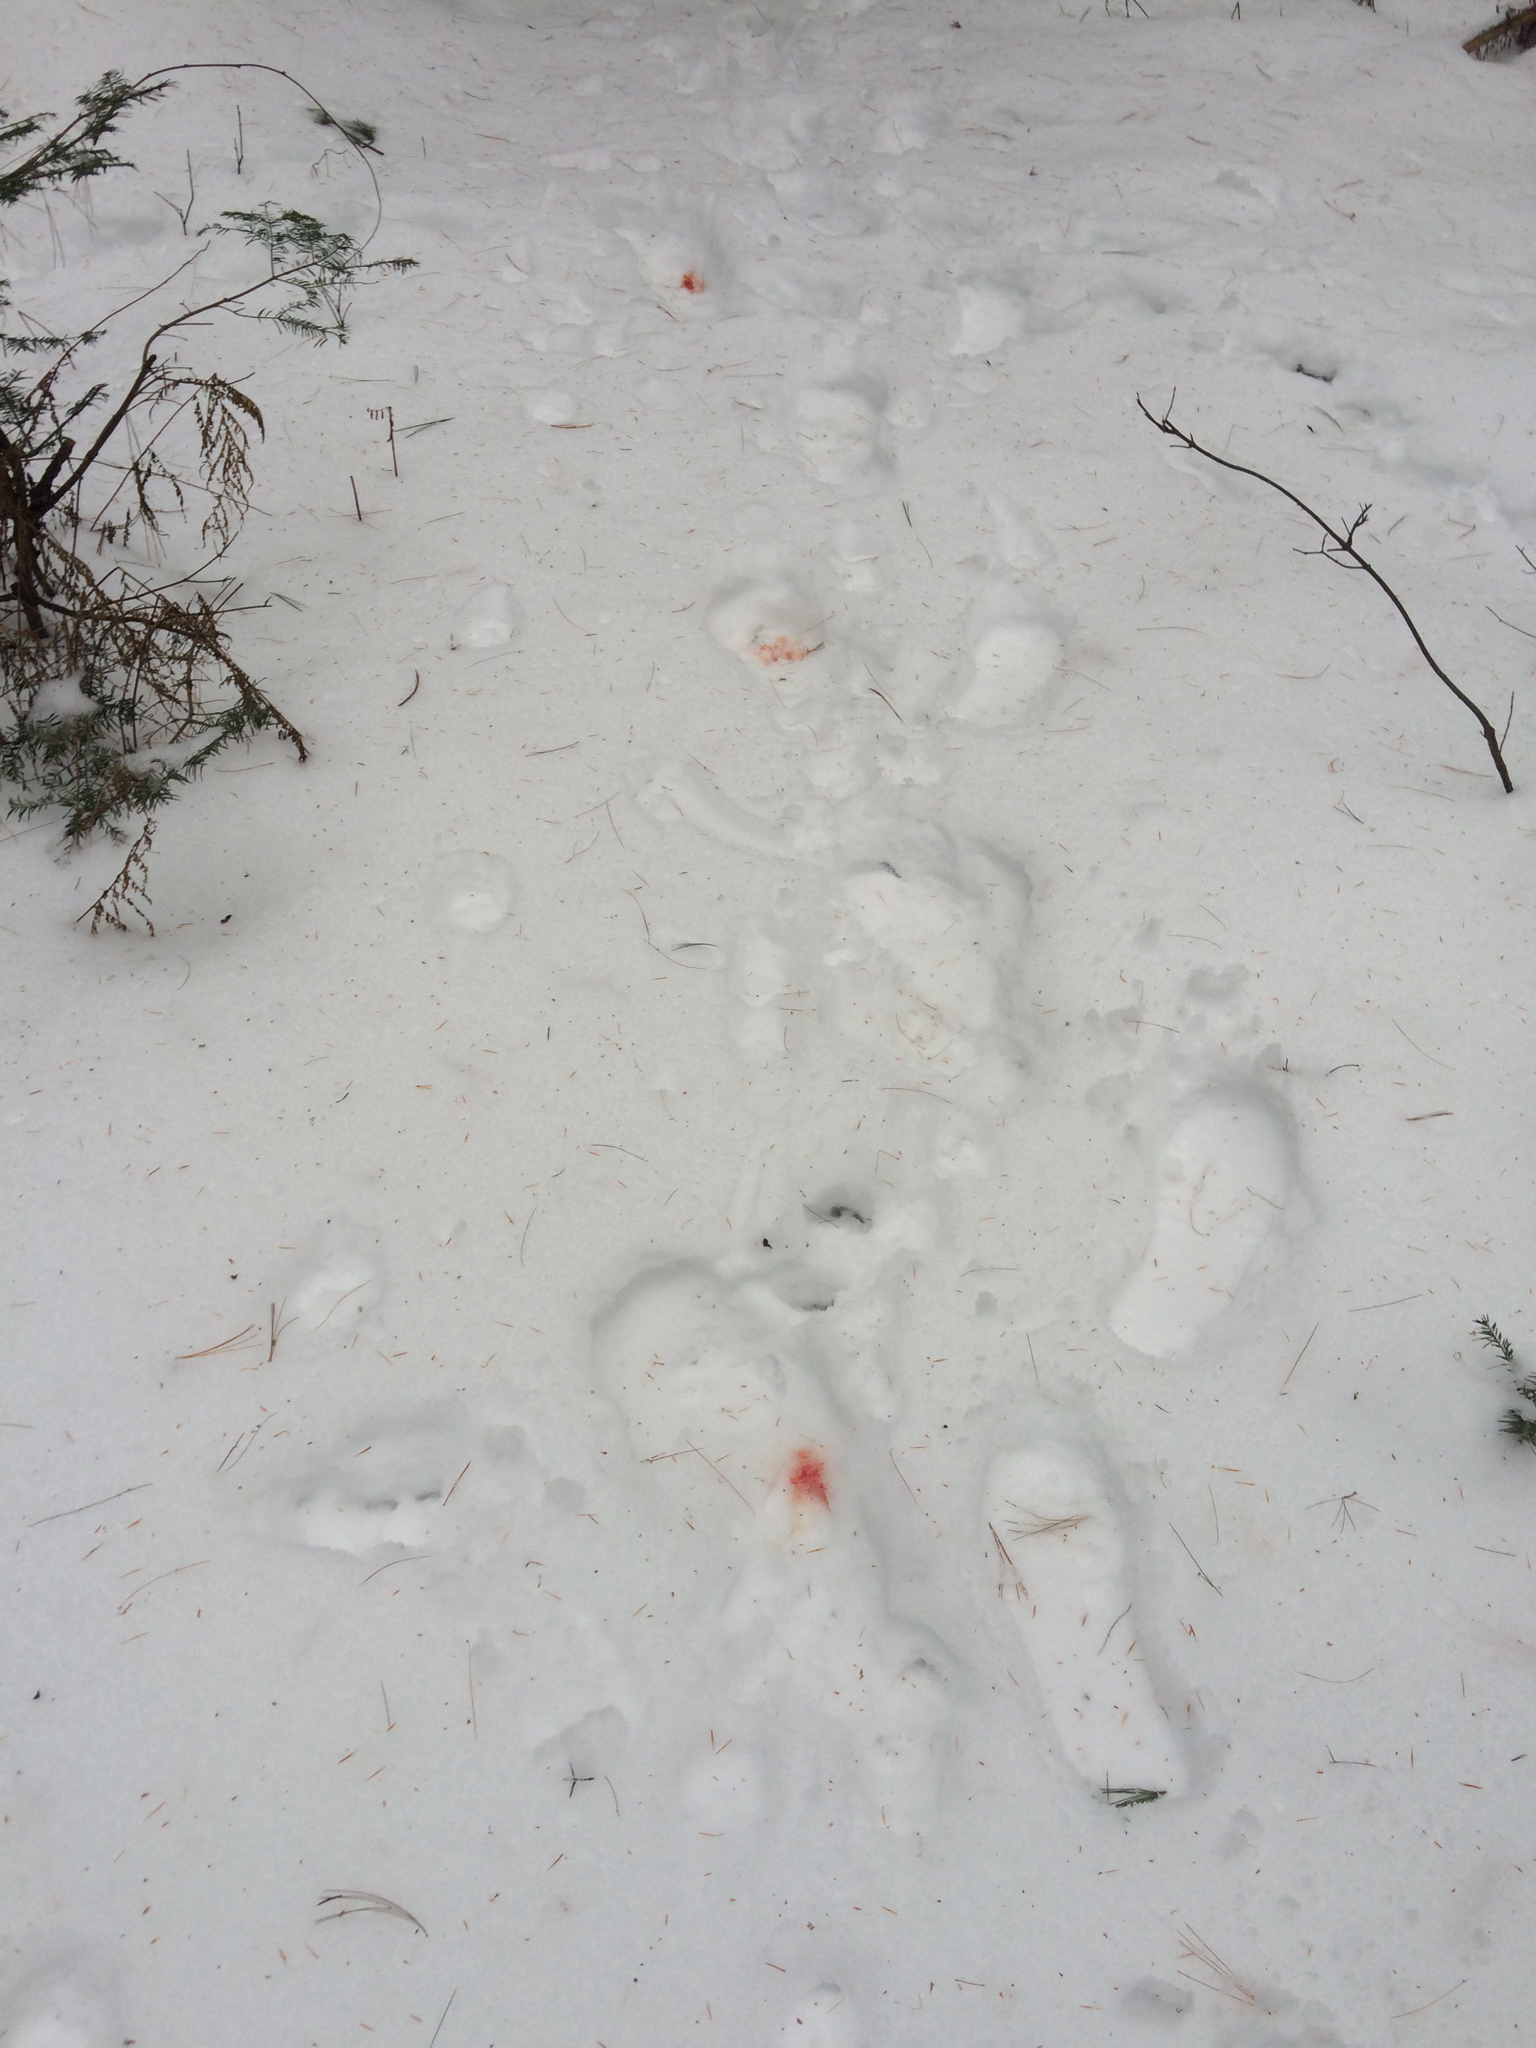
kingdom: Animalia
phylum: Chordata
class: Mammalia
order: Artiodactyla
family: Cervidae
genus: Odocoileus
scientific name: Odocoileus virginianus
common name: White-tailed deer
